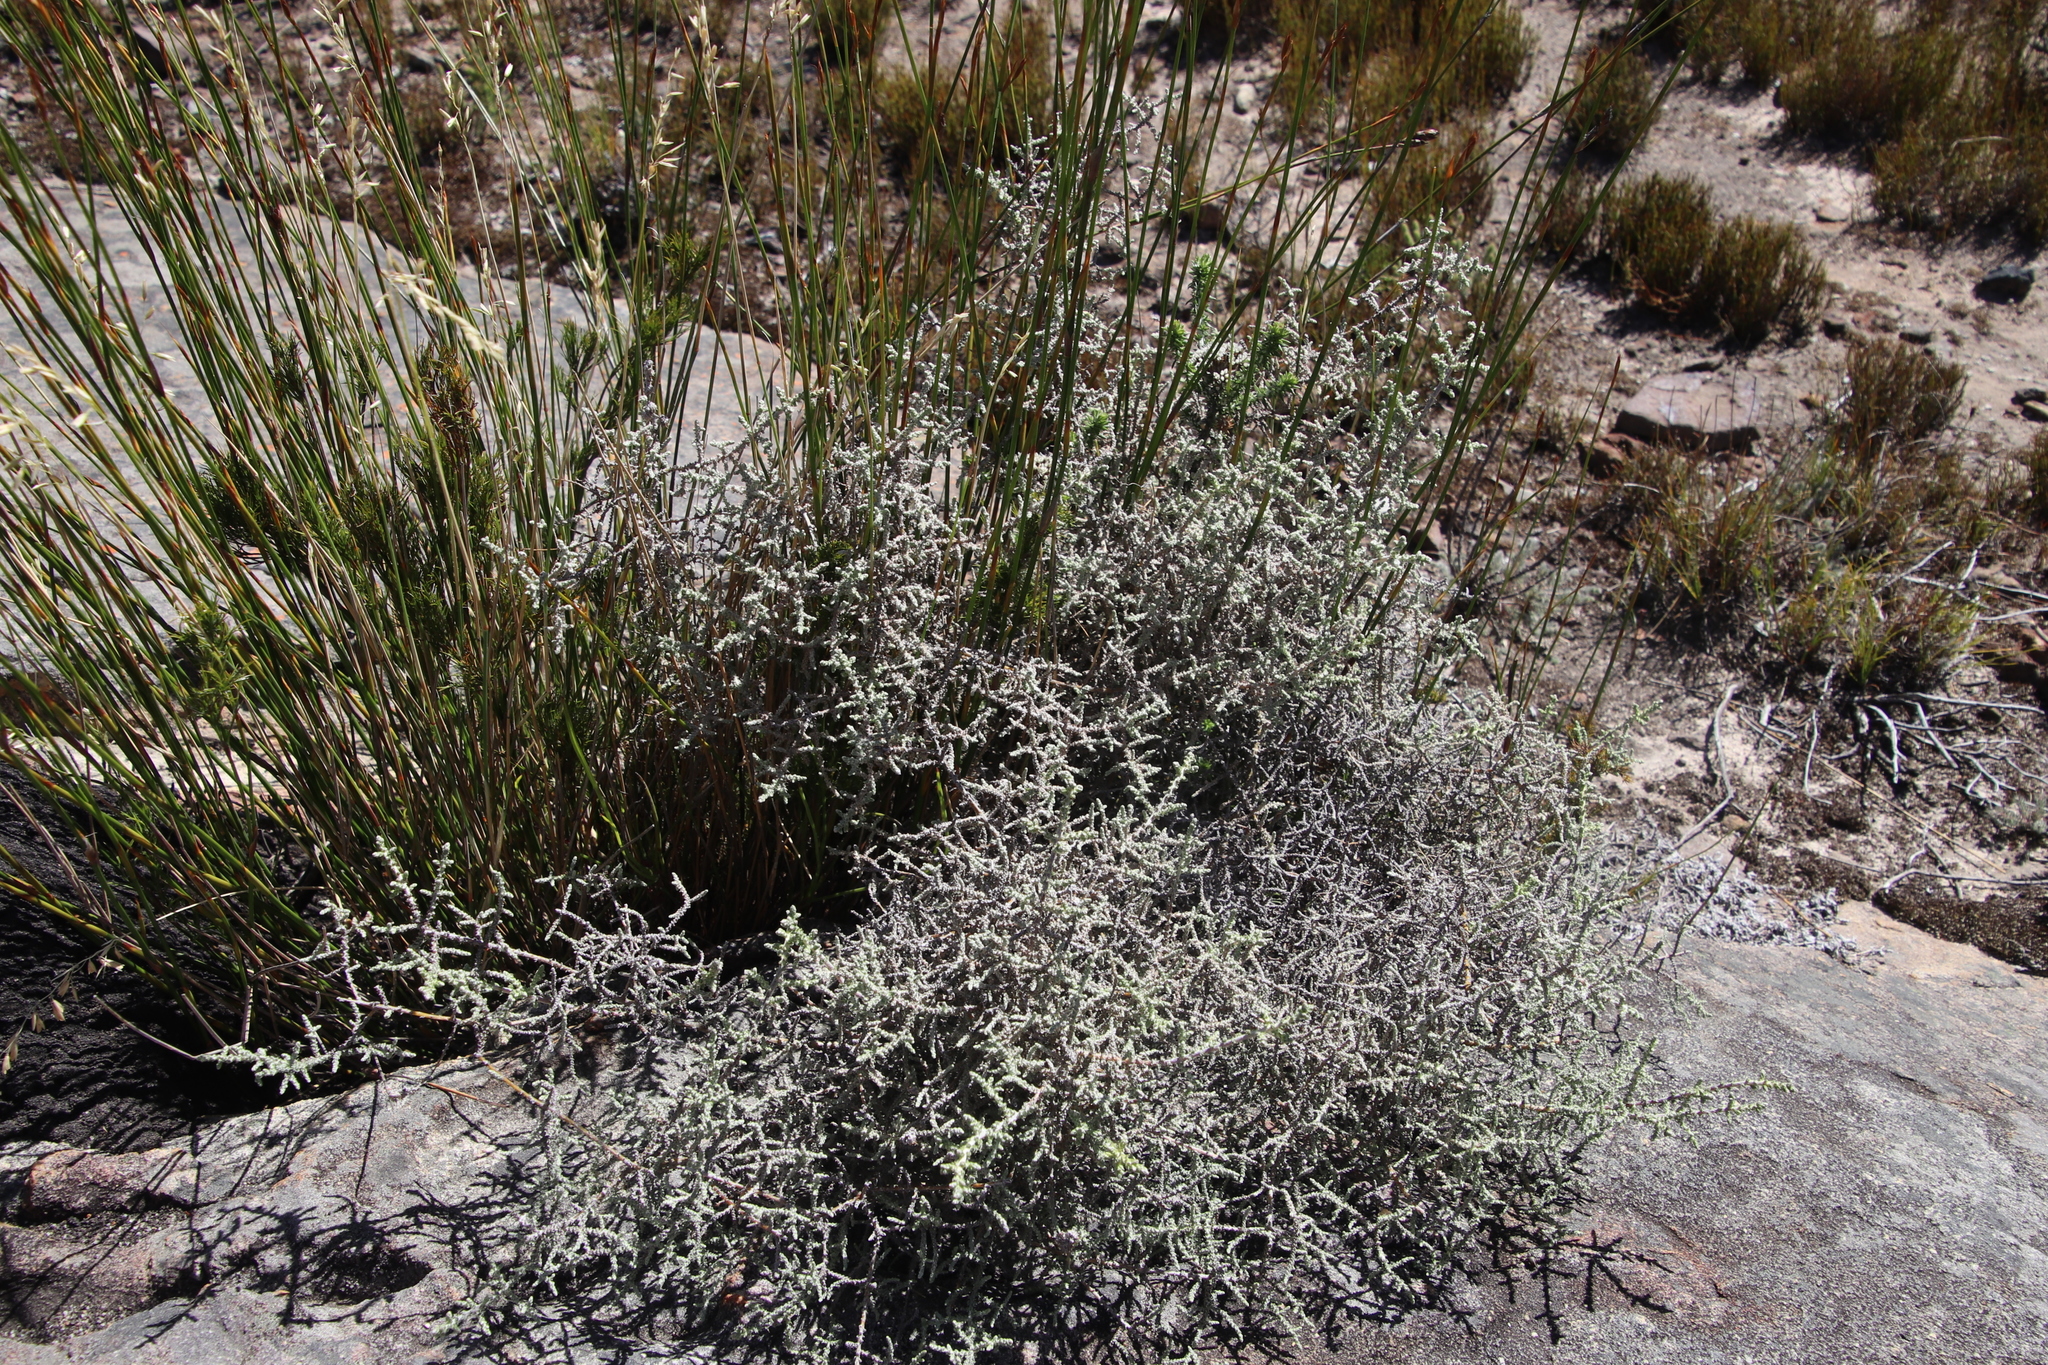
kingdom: Plantae
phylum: Tracheophyta
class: Magnoliopsida
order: Asterales
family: Asteraceae
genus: Seriphium
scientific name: Seriphium plumosum
